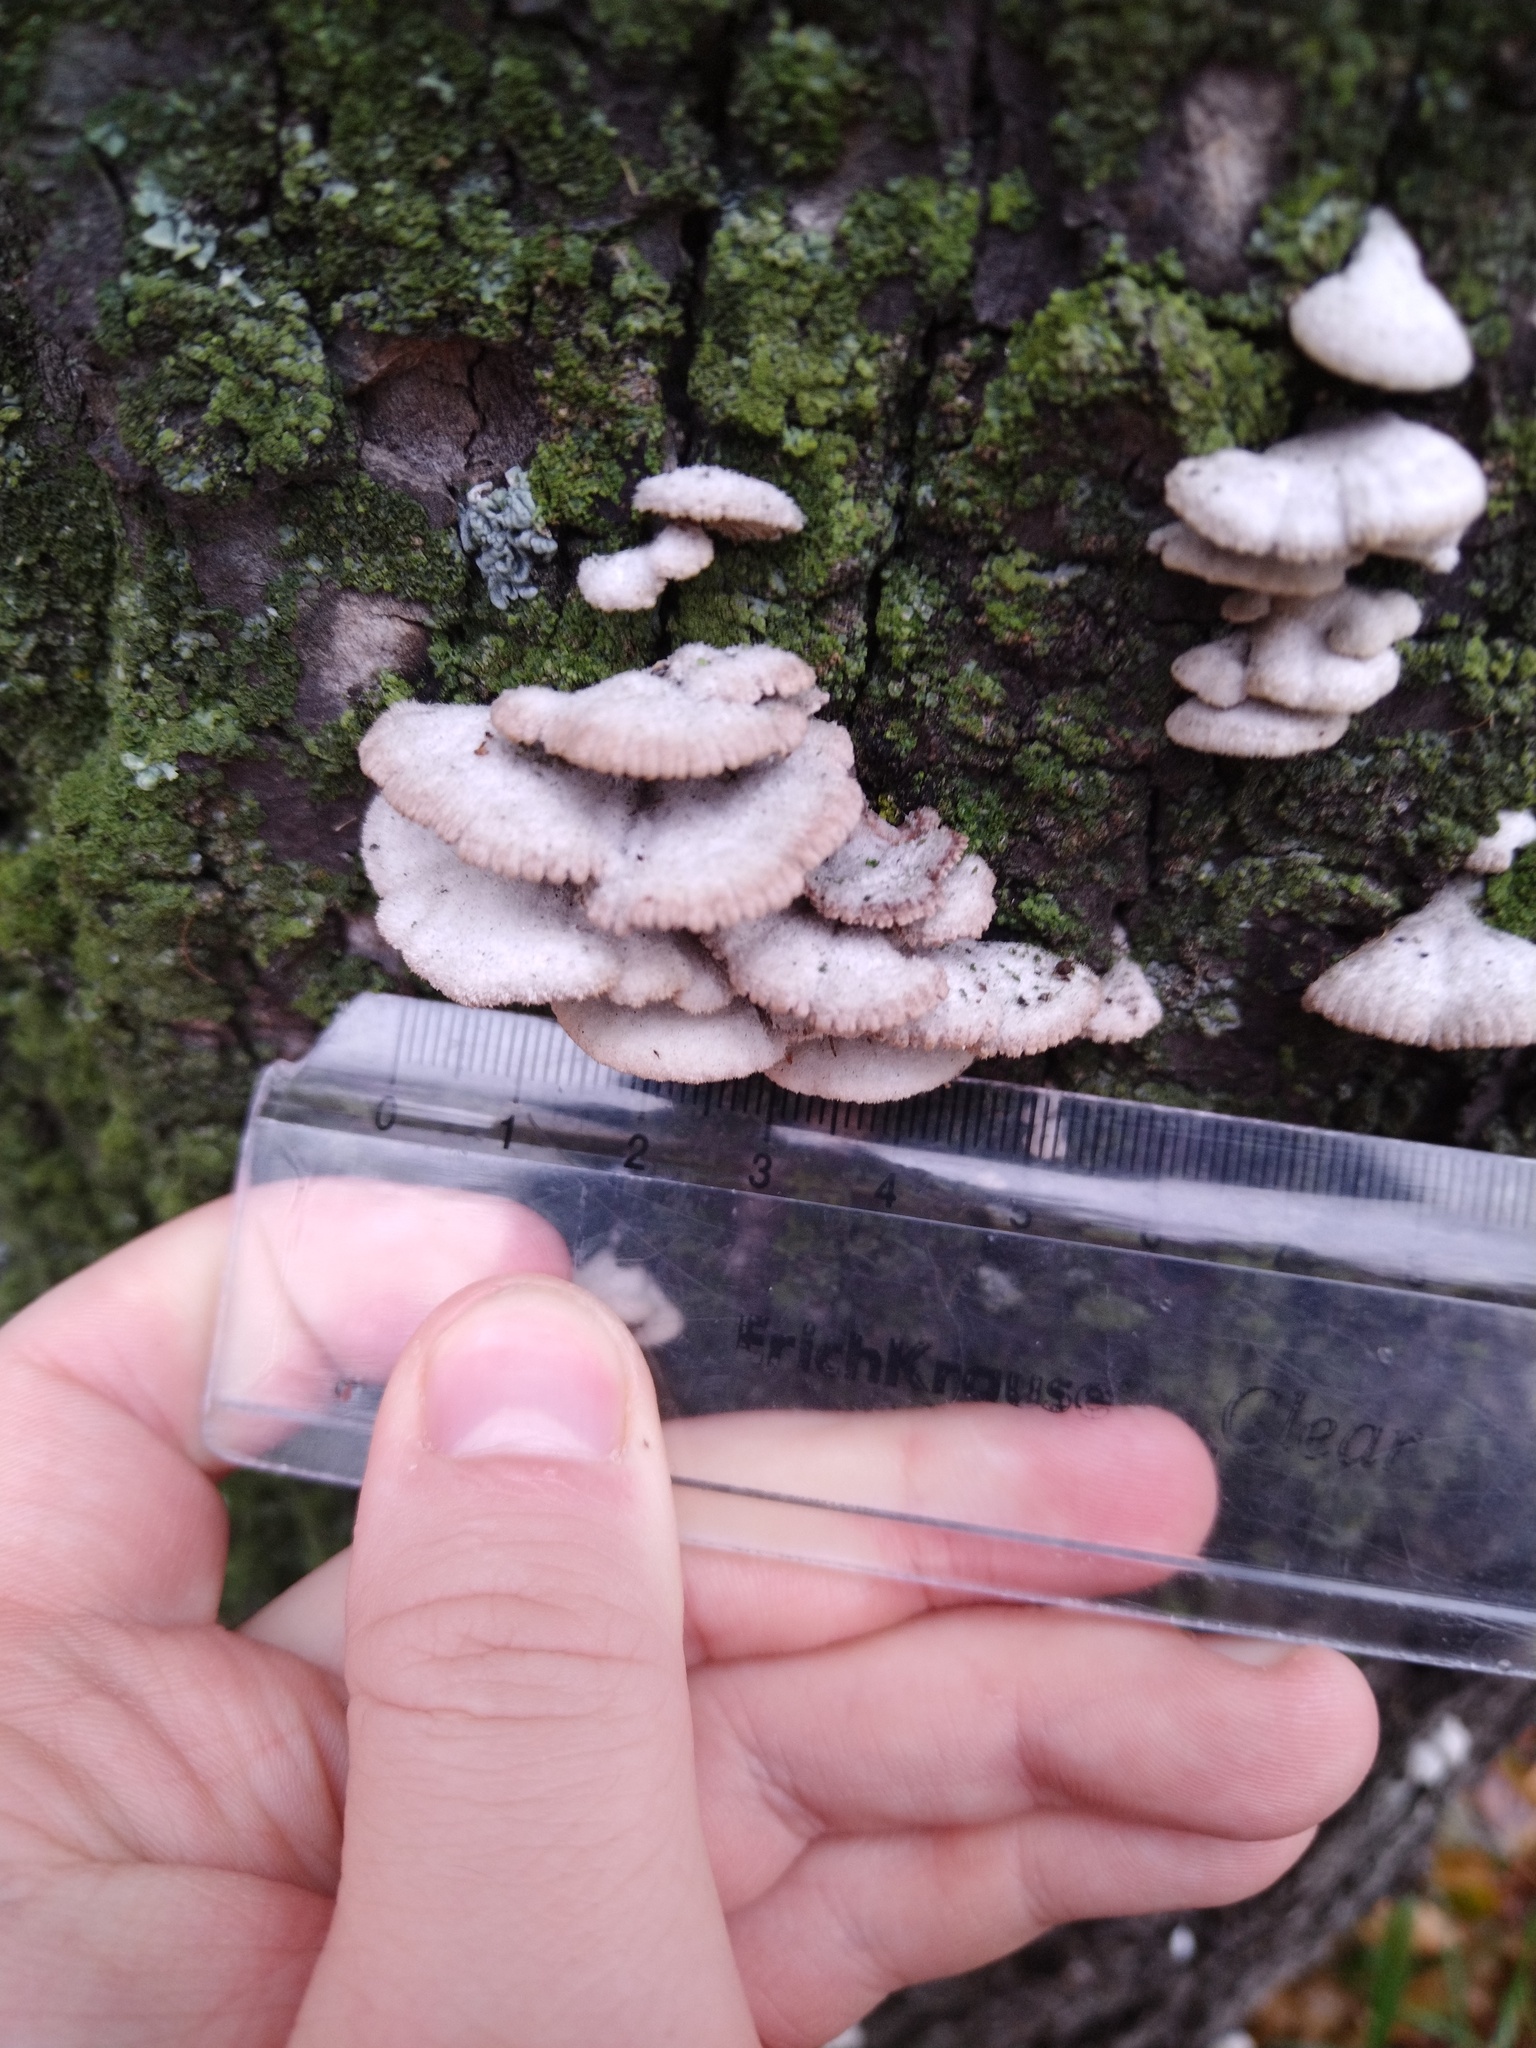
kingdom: Fungi
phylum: Basidiomycota
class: Agaricomycetes
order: Agaricales
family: Schizophyllaceae
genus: Schizophyllum
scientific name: Schizophyllum commune
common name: Common porecrust
